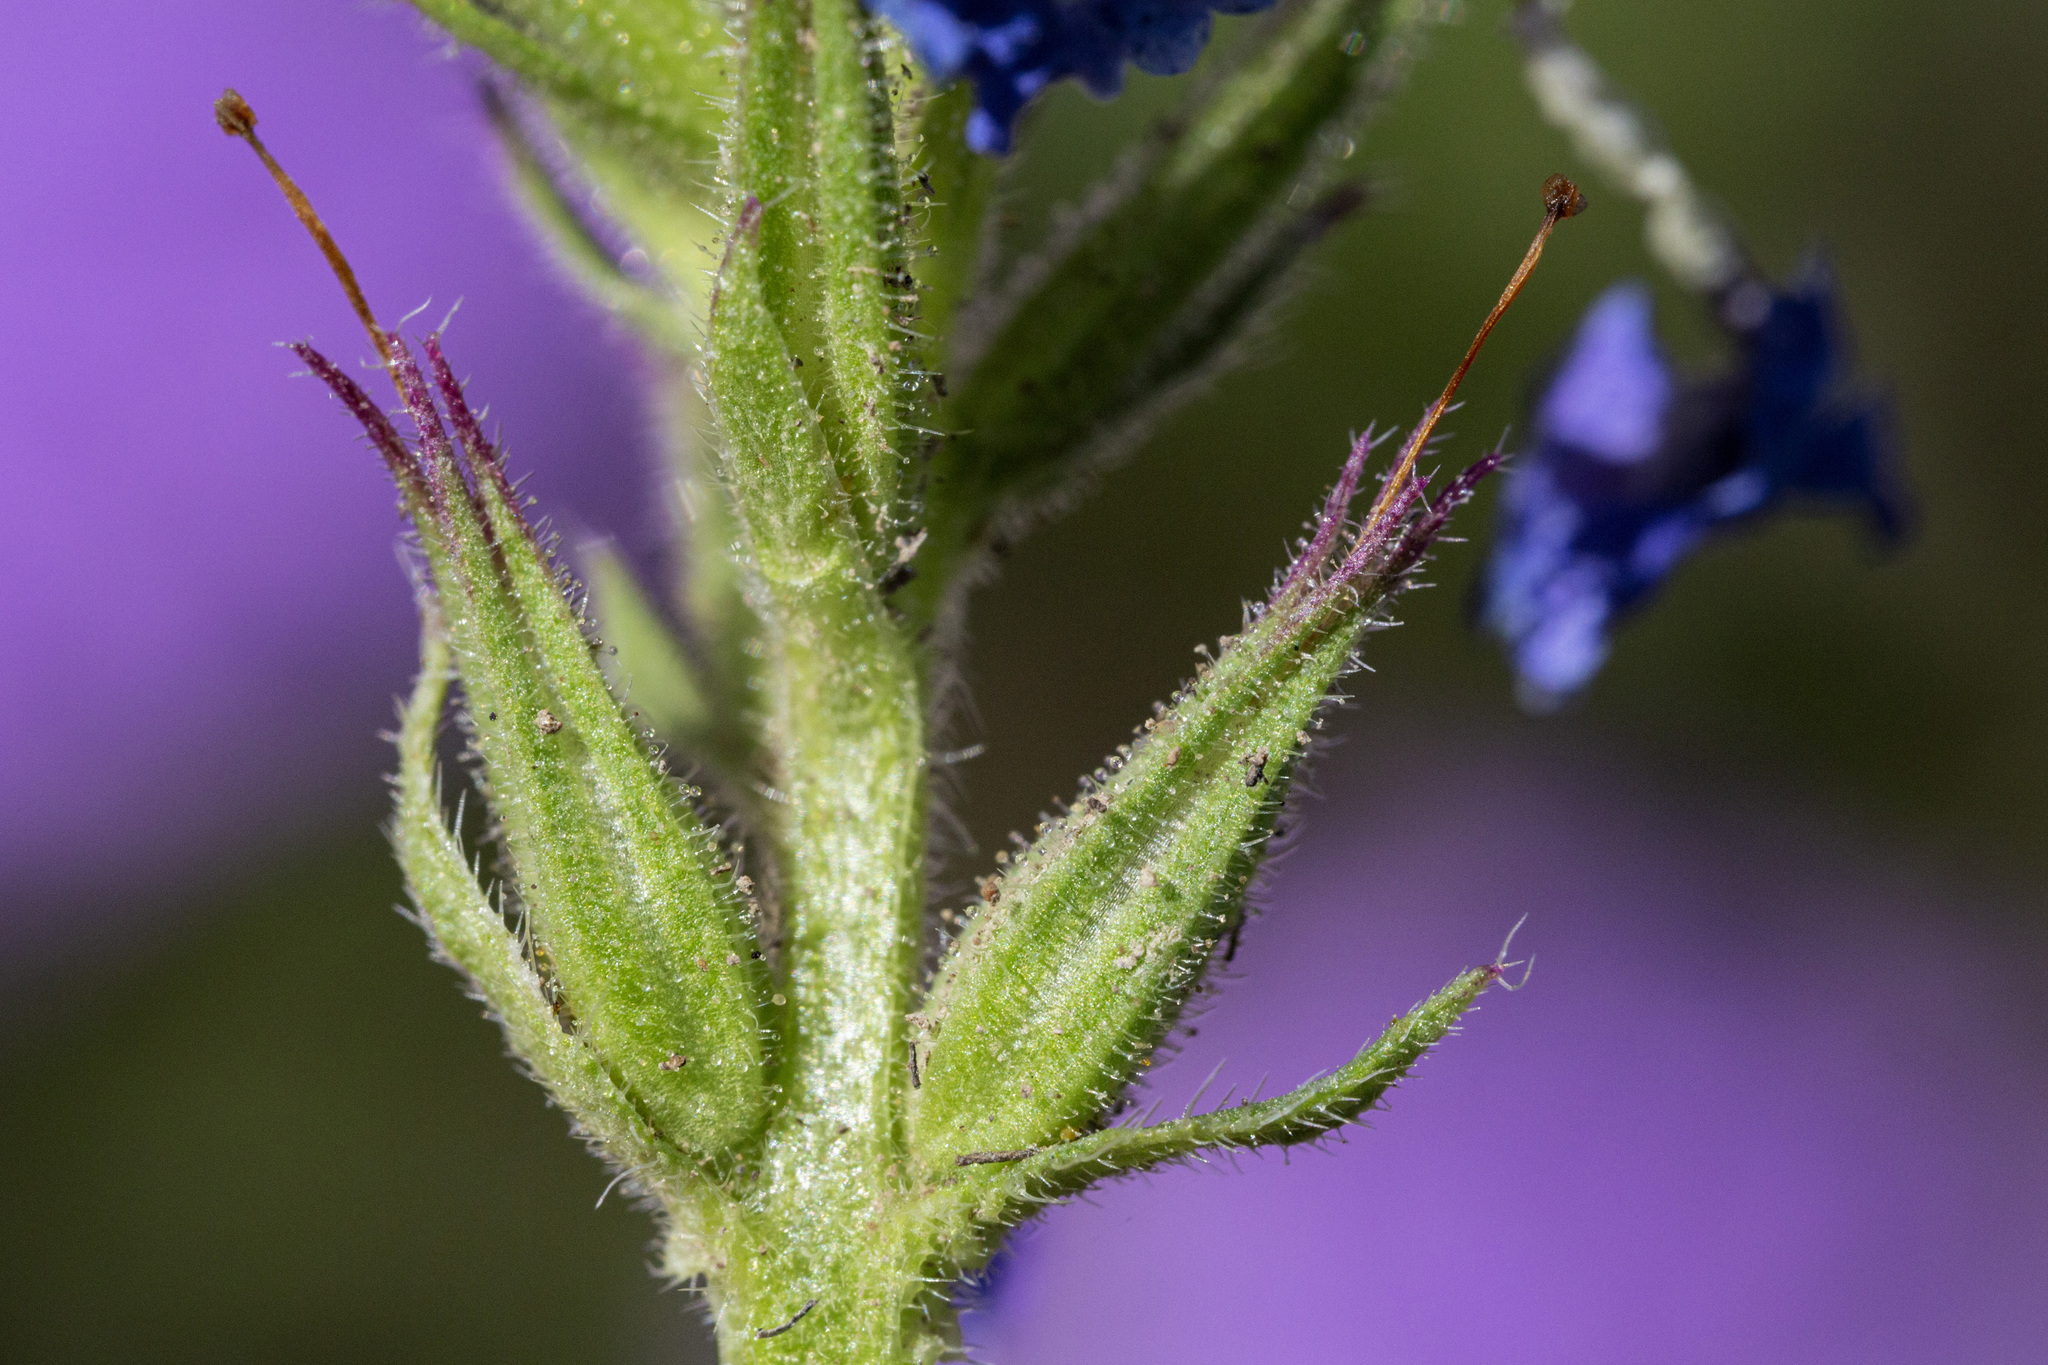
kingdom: Plantae
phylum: Tracheophyta
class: Magnoliopsida
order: Lamiales
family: Verbenaceae
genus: Verbena
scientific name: Verbena bipinnatifida
